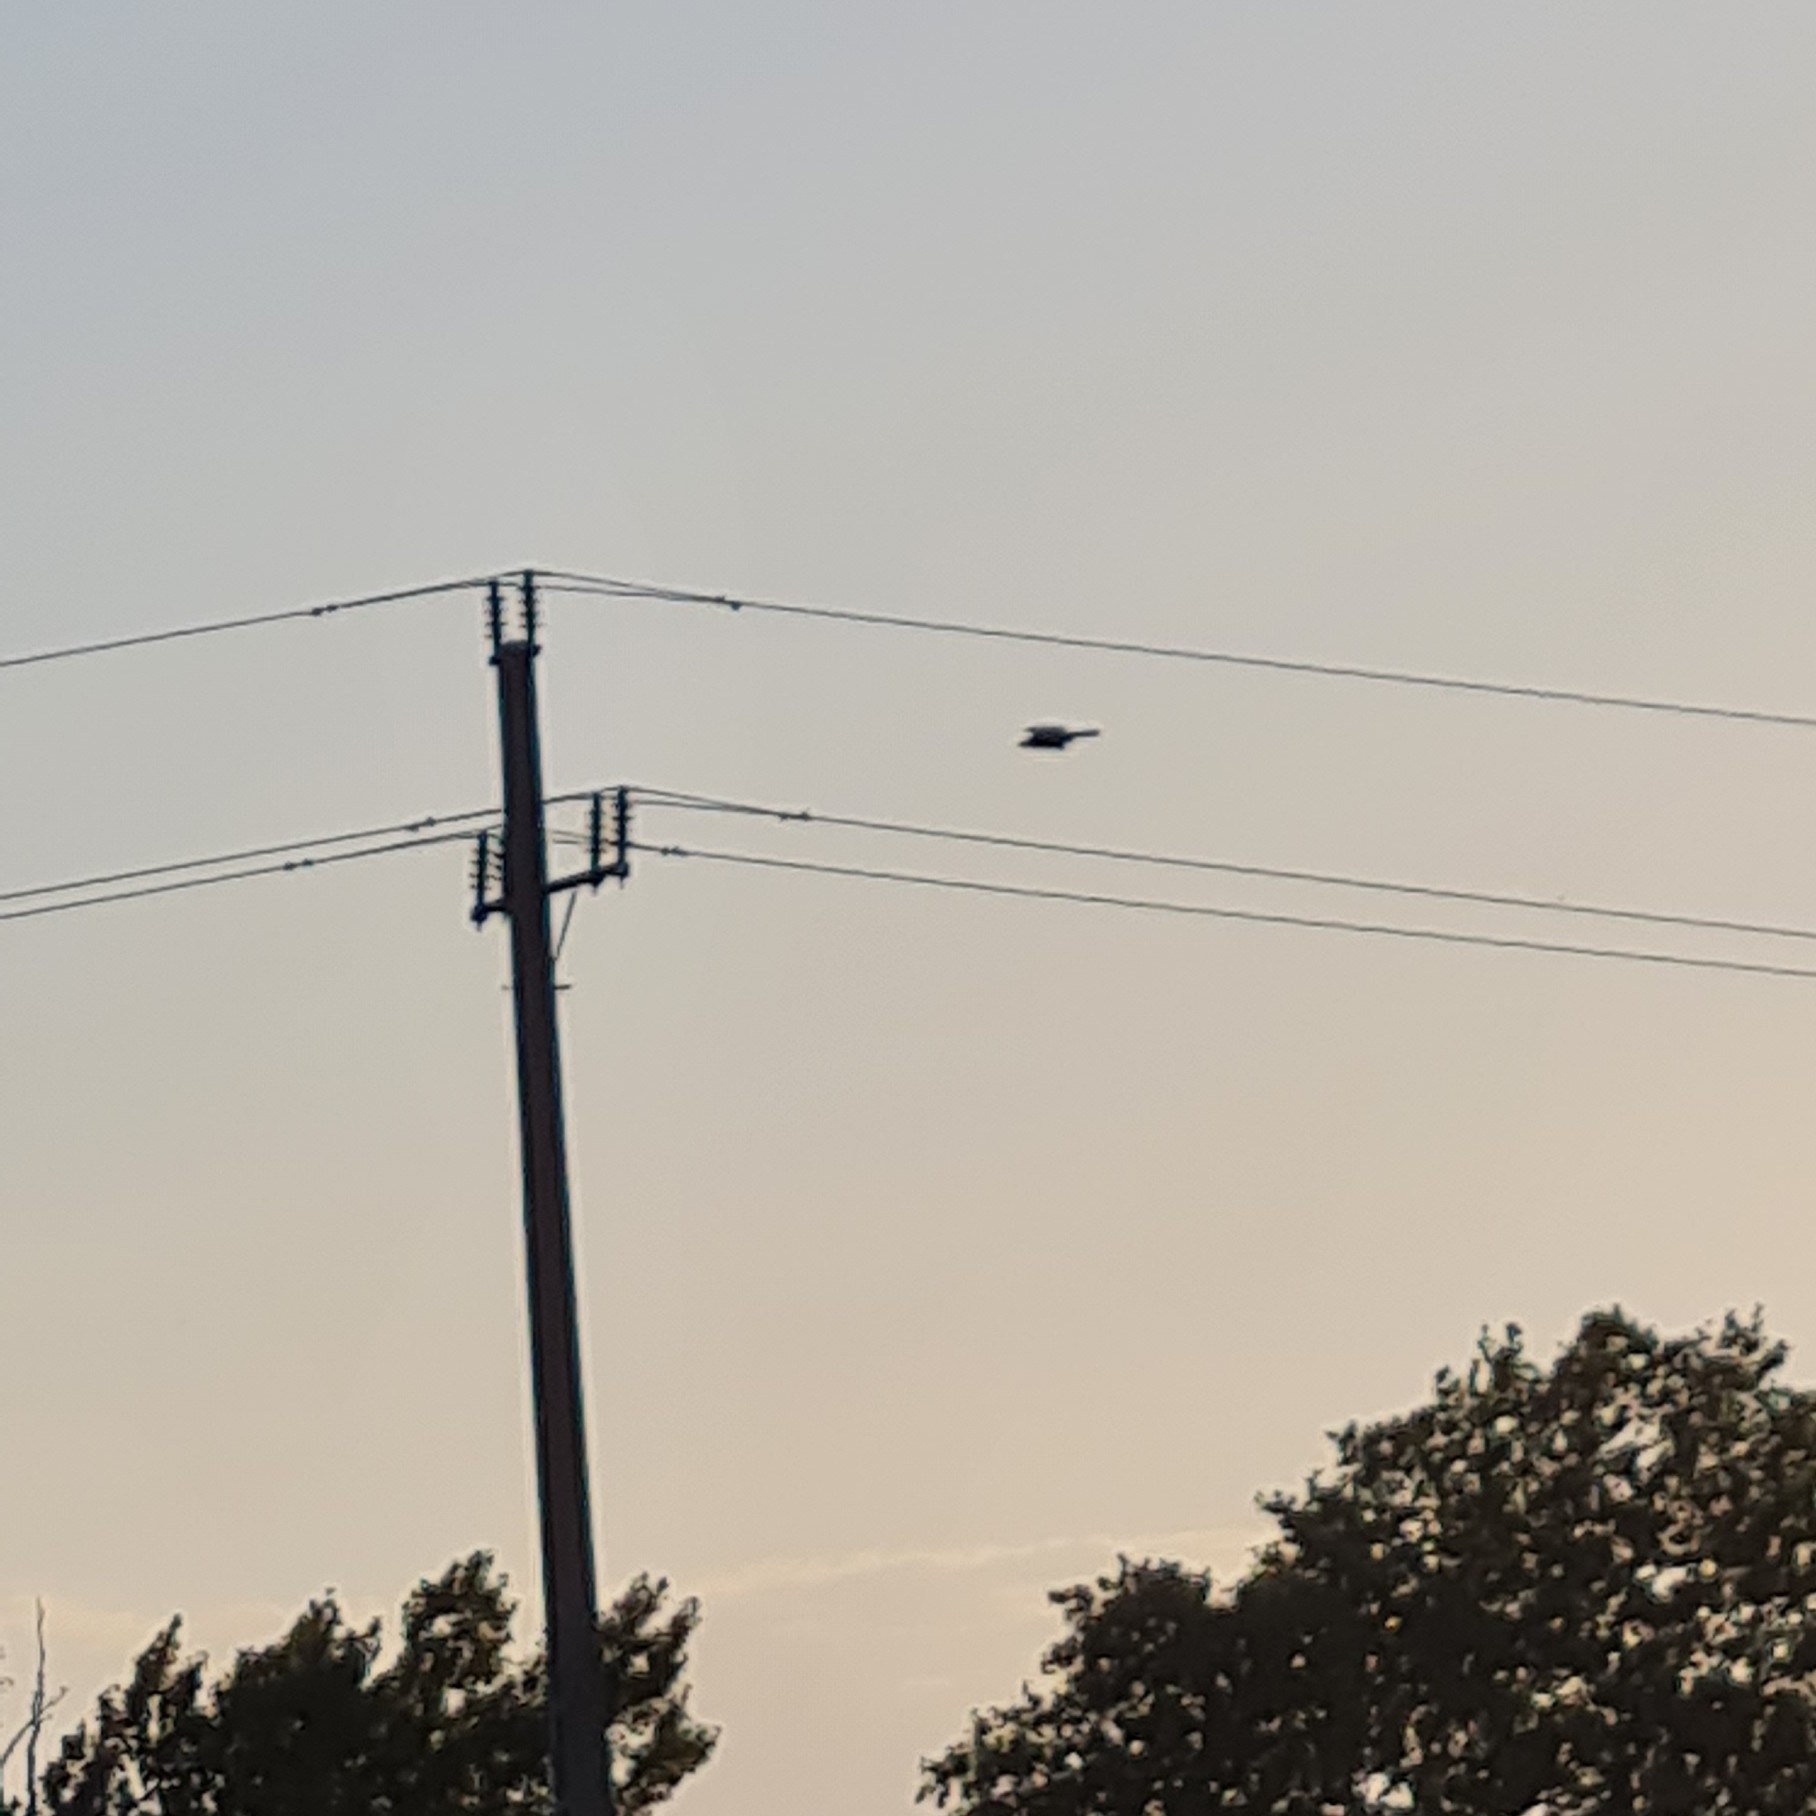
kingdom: Animalia
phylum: Chordata
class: Aves
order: Accipitriformes
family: Accipitridae
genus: Milvus
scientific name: Milvus migrans
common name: Black kite
